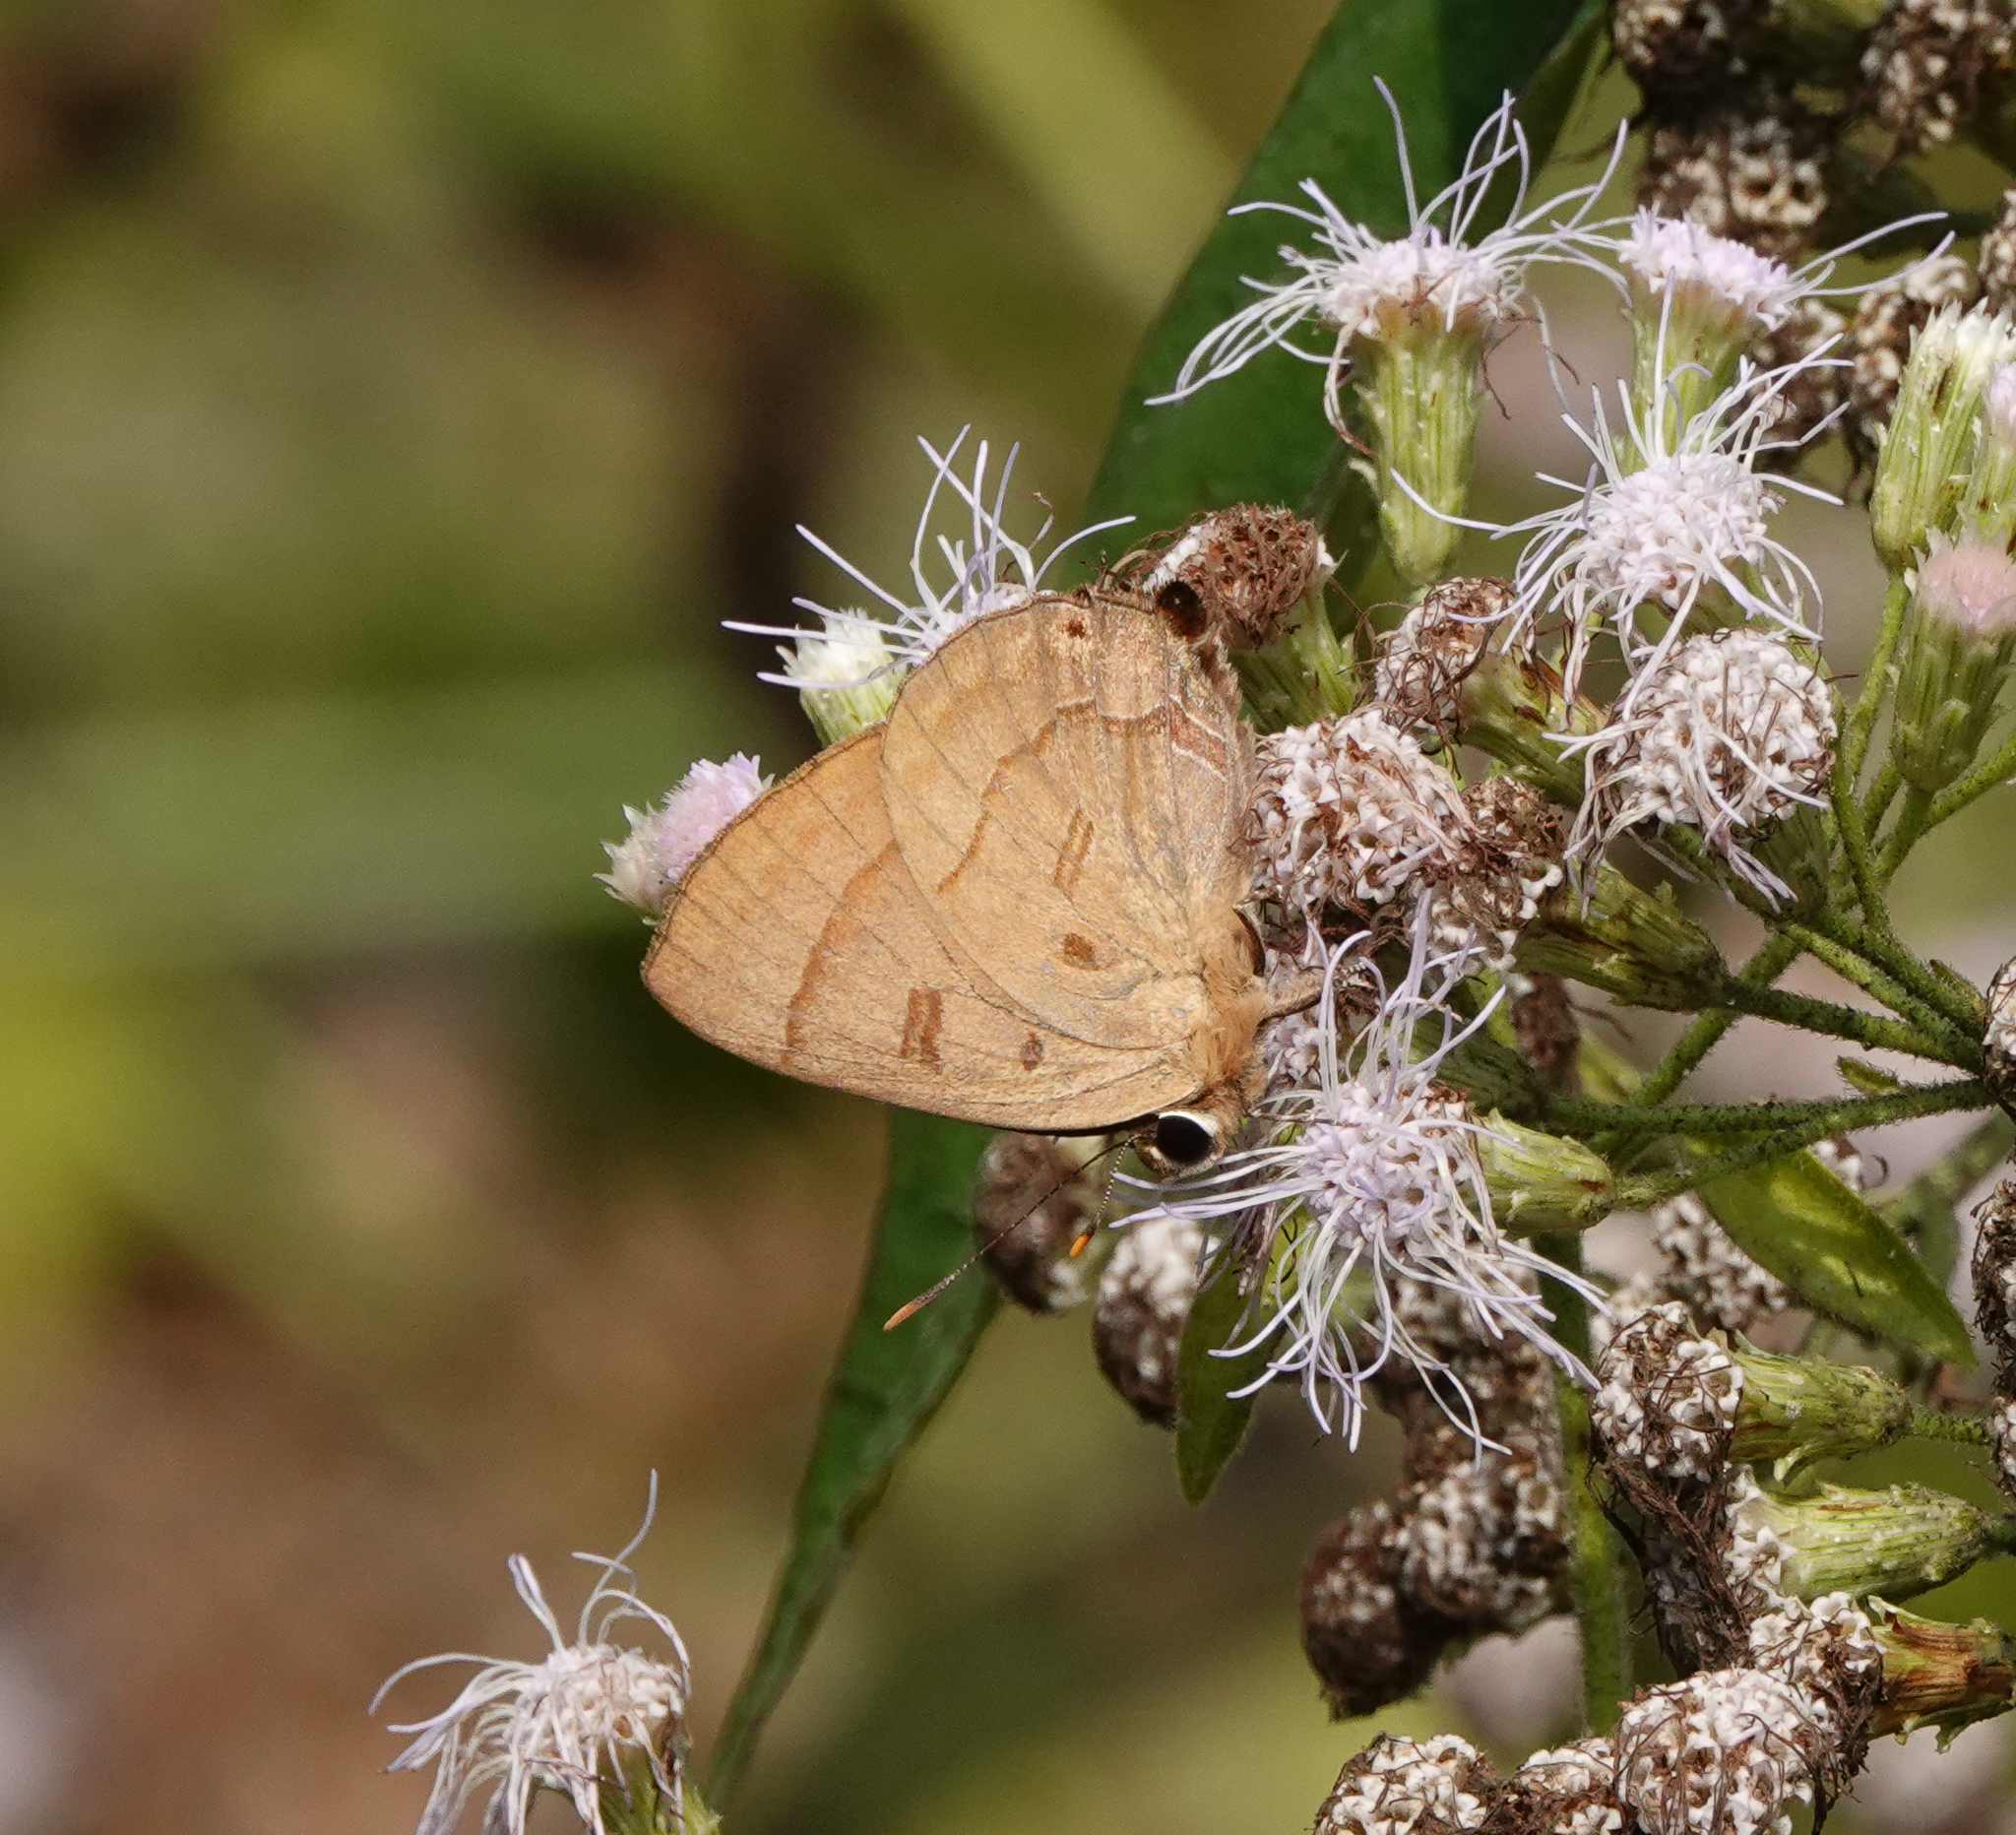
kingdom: Animalia
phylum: Arthropoda
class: Insecta
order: Lepidoptera
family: Lycaenidae
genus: Rapala
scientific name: Rapala pheretima
